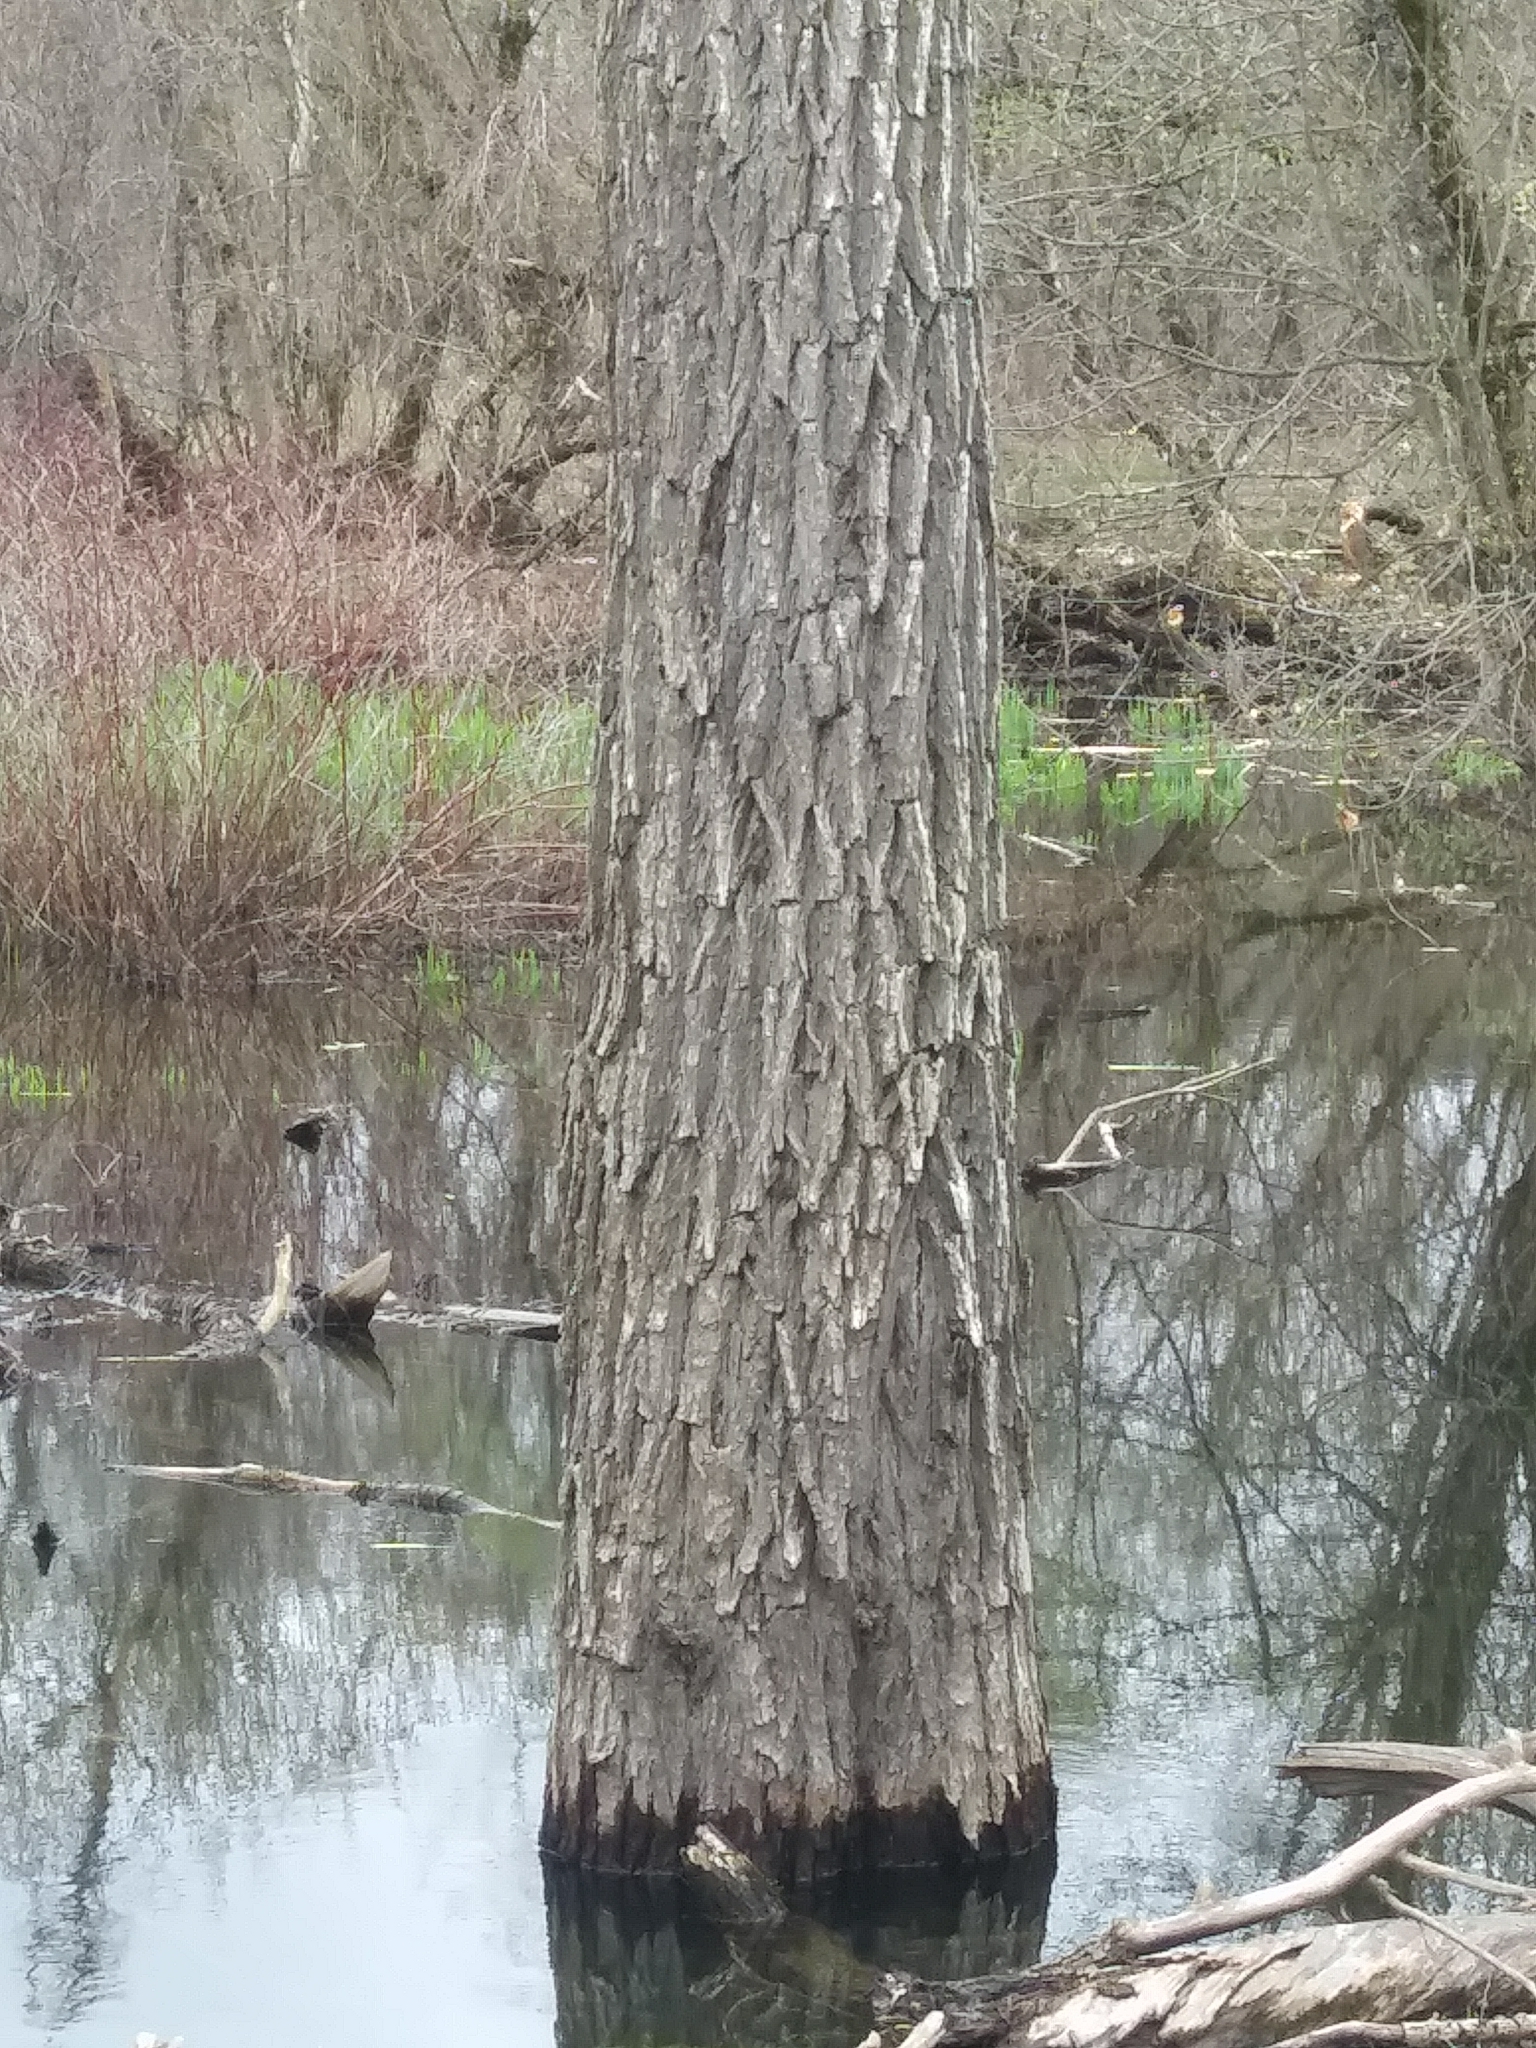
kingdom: Plantae
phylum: Tracheophyta
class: Magnoliopsida
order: Malpighiales
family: Salicaceae
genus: Salix
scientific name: Salix nigra
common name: Black willow
